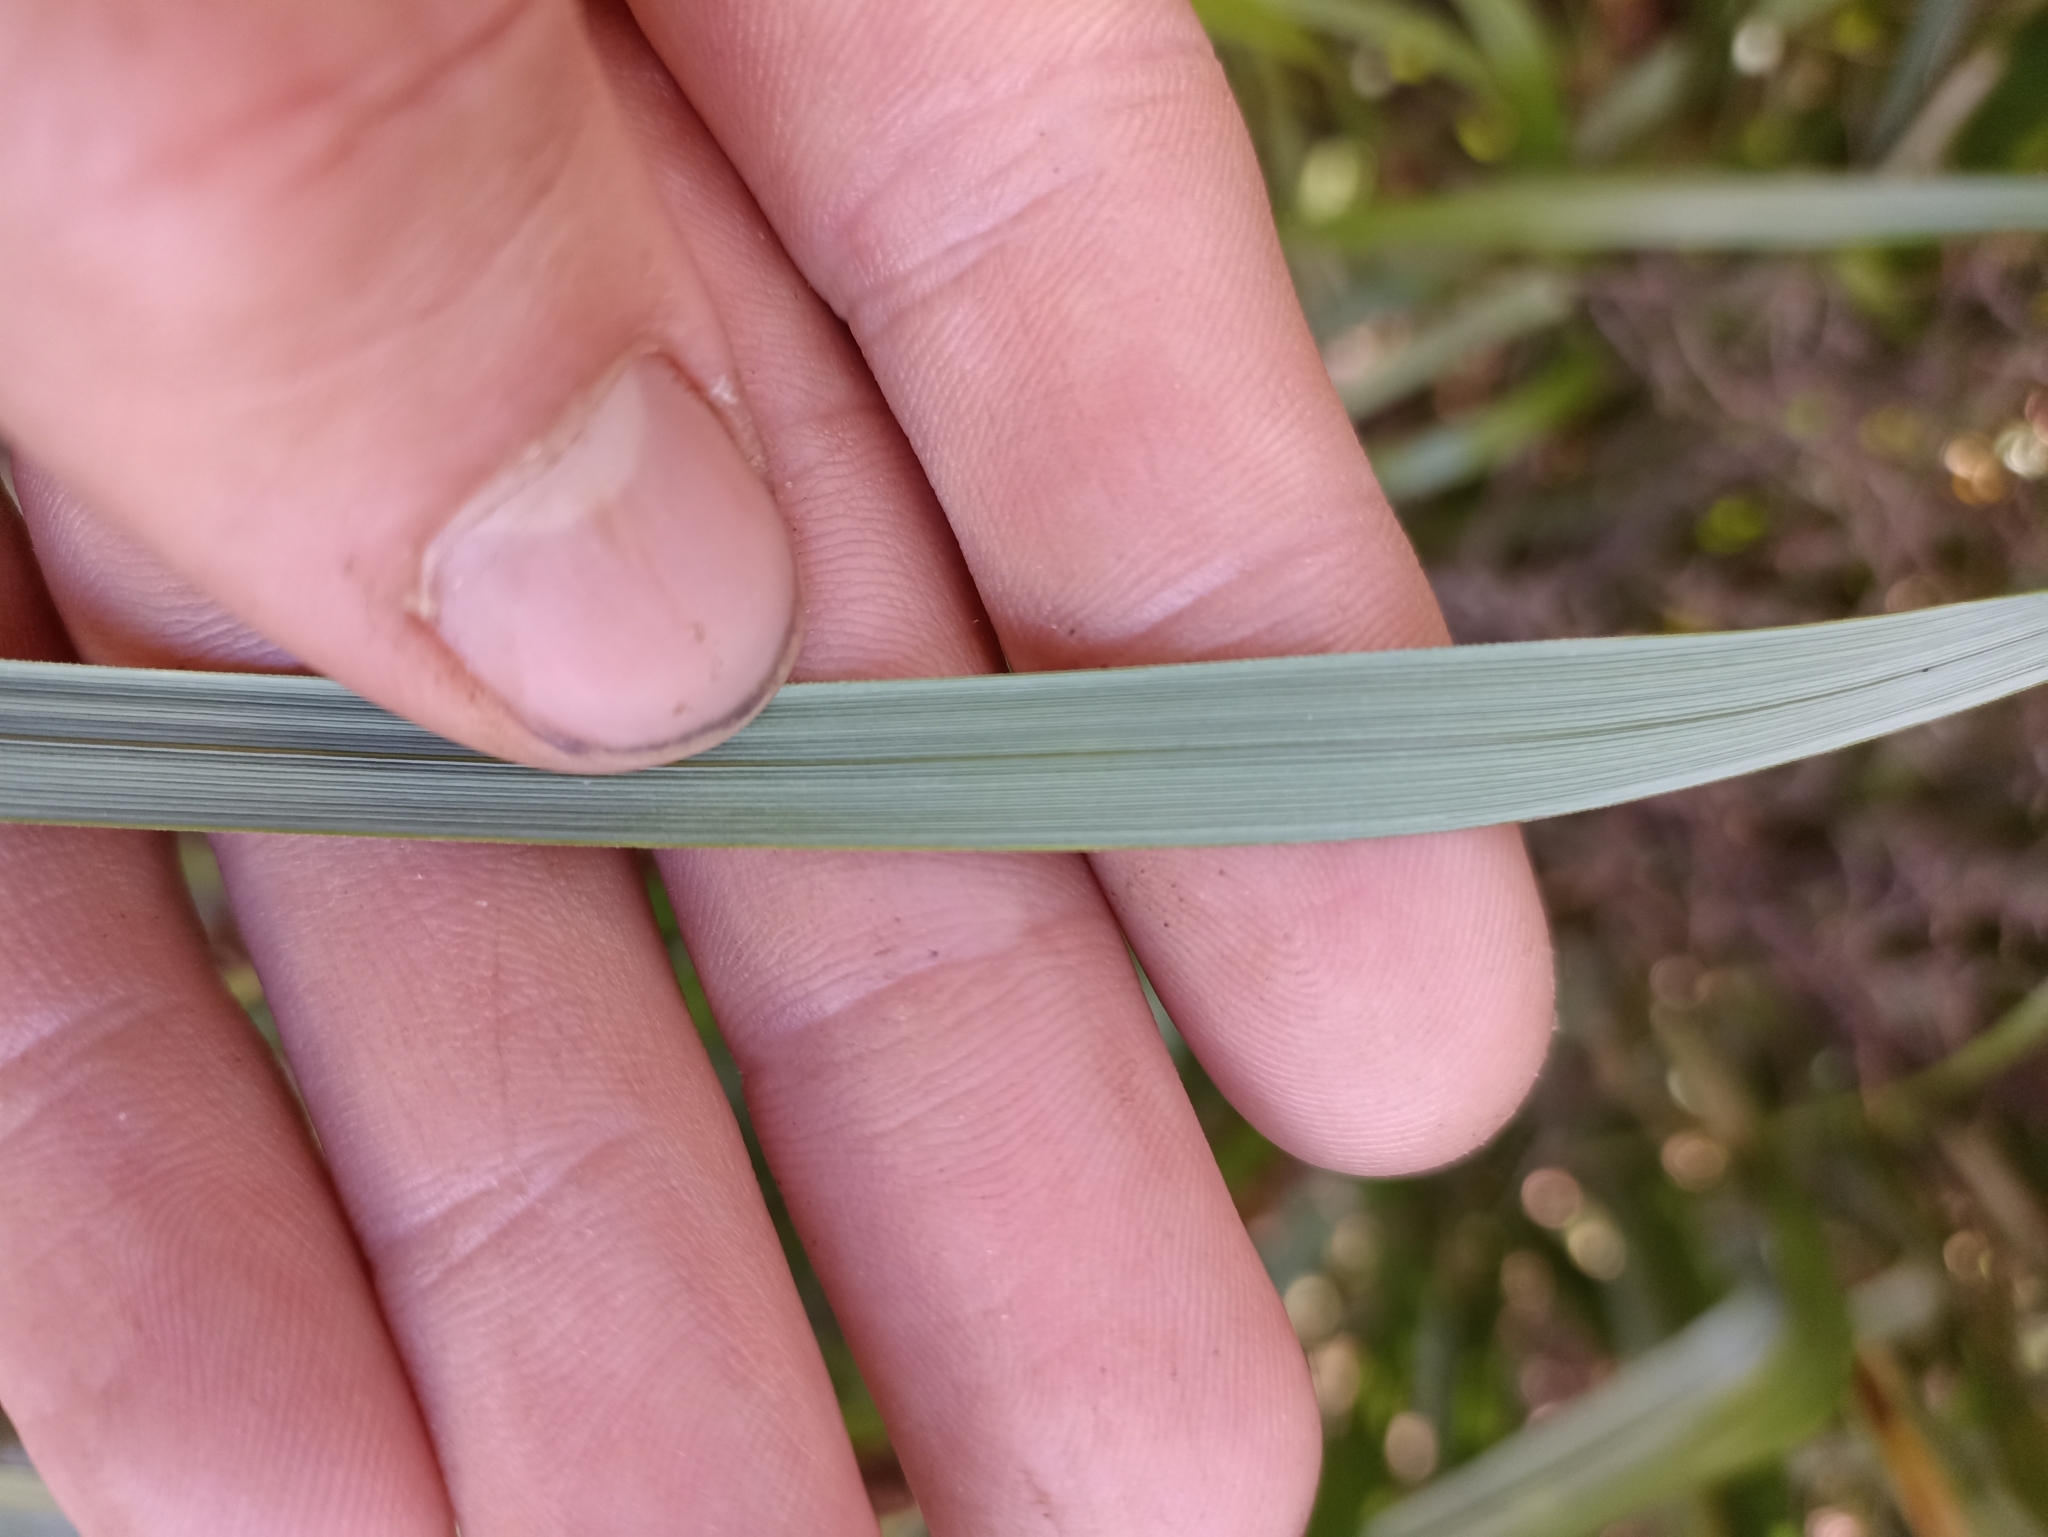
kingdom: Plantae
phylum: Tracheophyta
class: Liliopsida
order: Poales
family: Cyperaceae
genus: Morelotia
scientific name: Morelotia affinis
